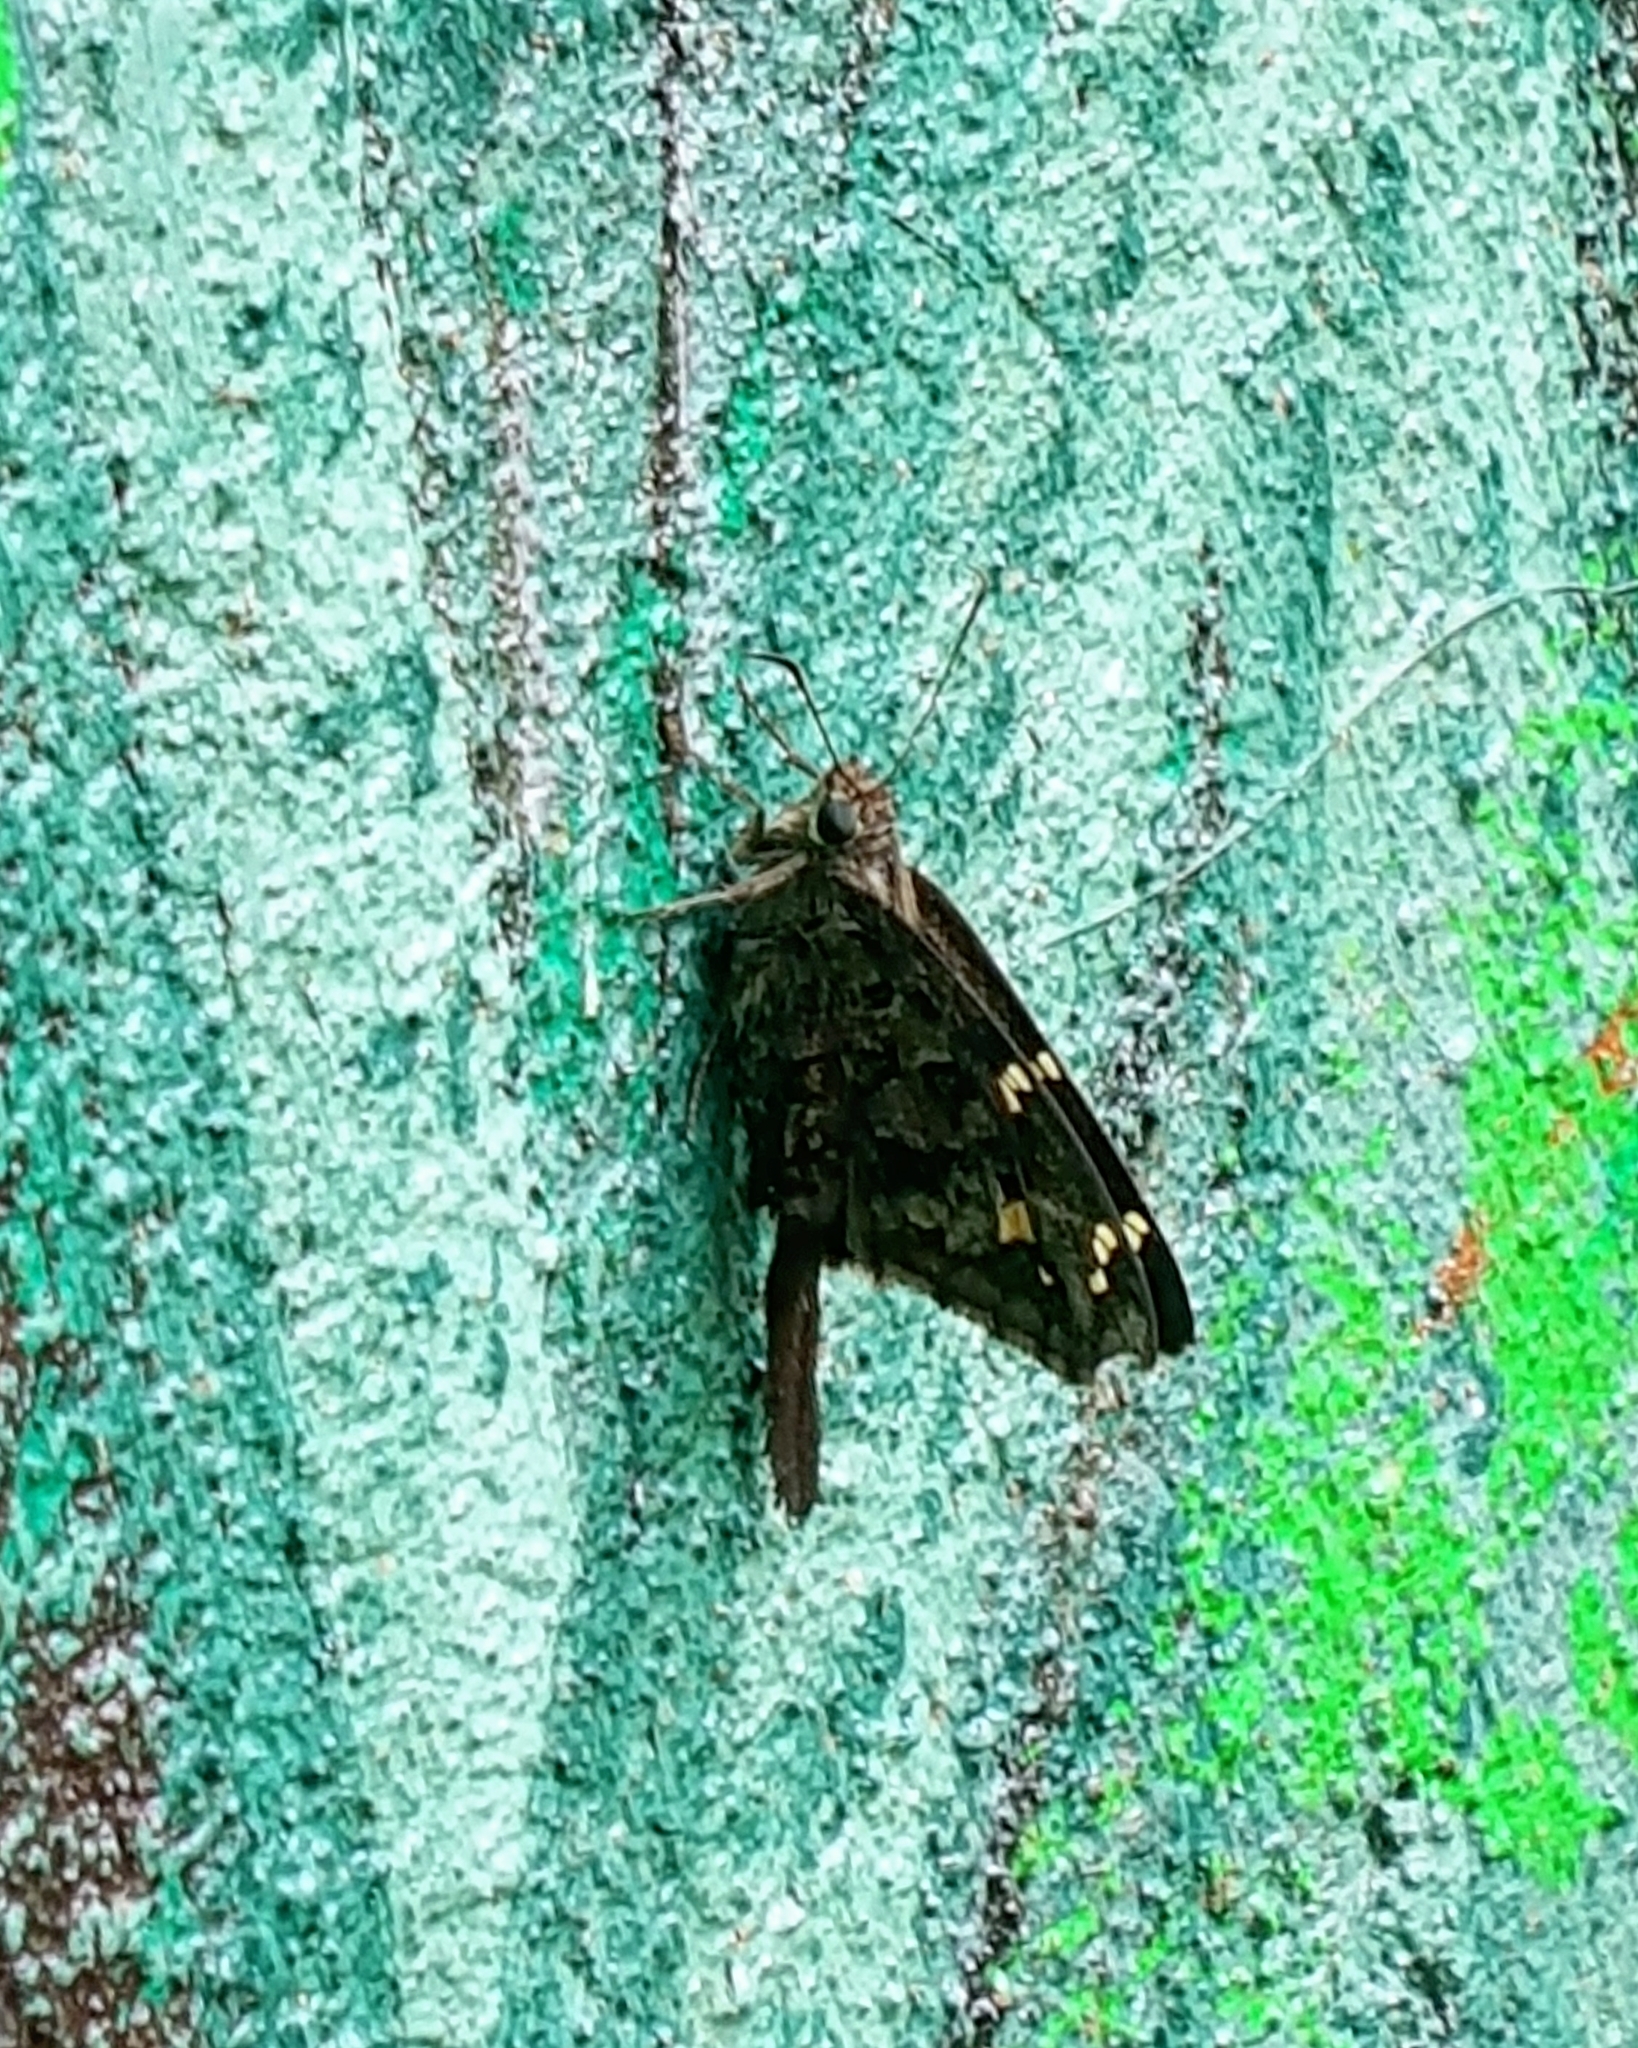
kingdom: Animalia
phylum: Arthropoda
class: Insecta
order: Lepidoptera
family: Hesperiidae
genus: Thorybes
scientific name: Thorybes
